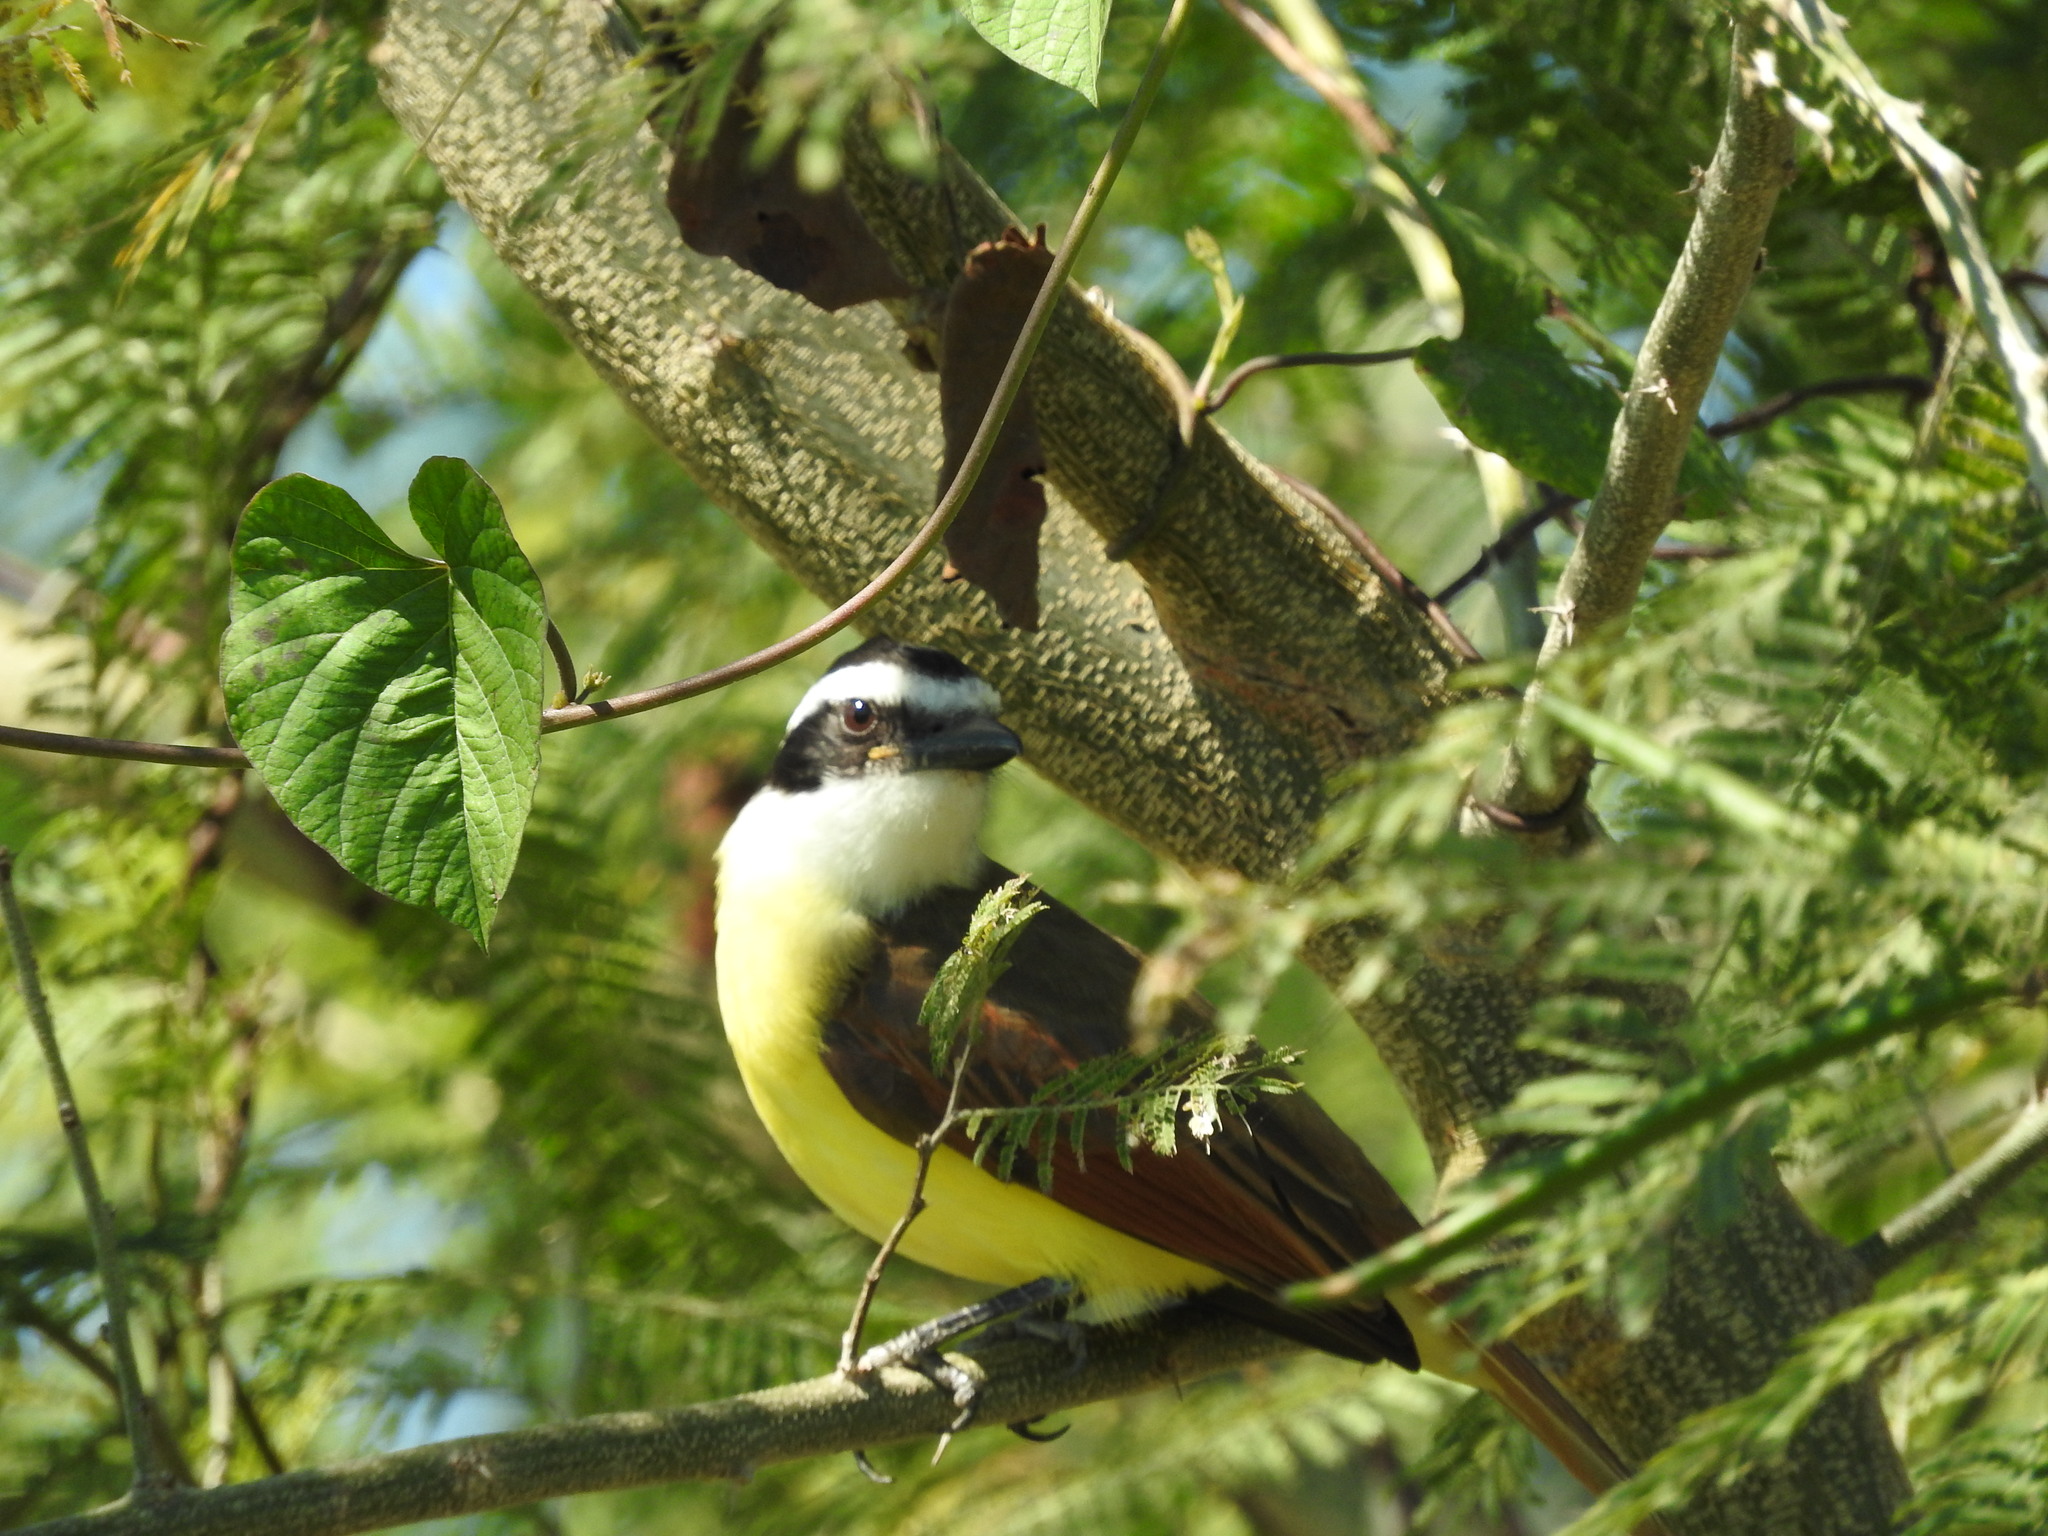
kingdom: Animalia
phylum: Chordata
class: Aves
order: Passeriformes
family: Tyrannidae
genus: Pitangus
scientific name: Pitangus sulphuratus
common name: Great kiskadee
